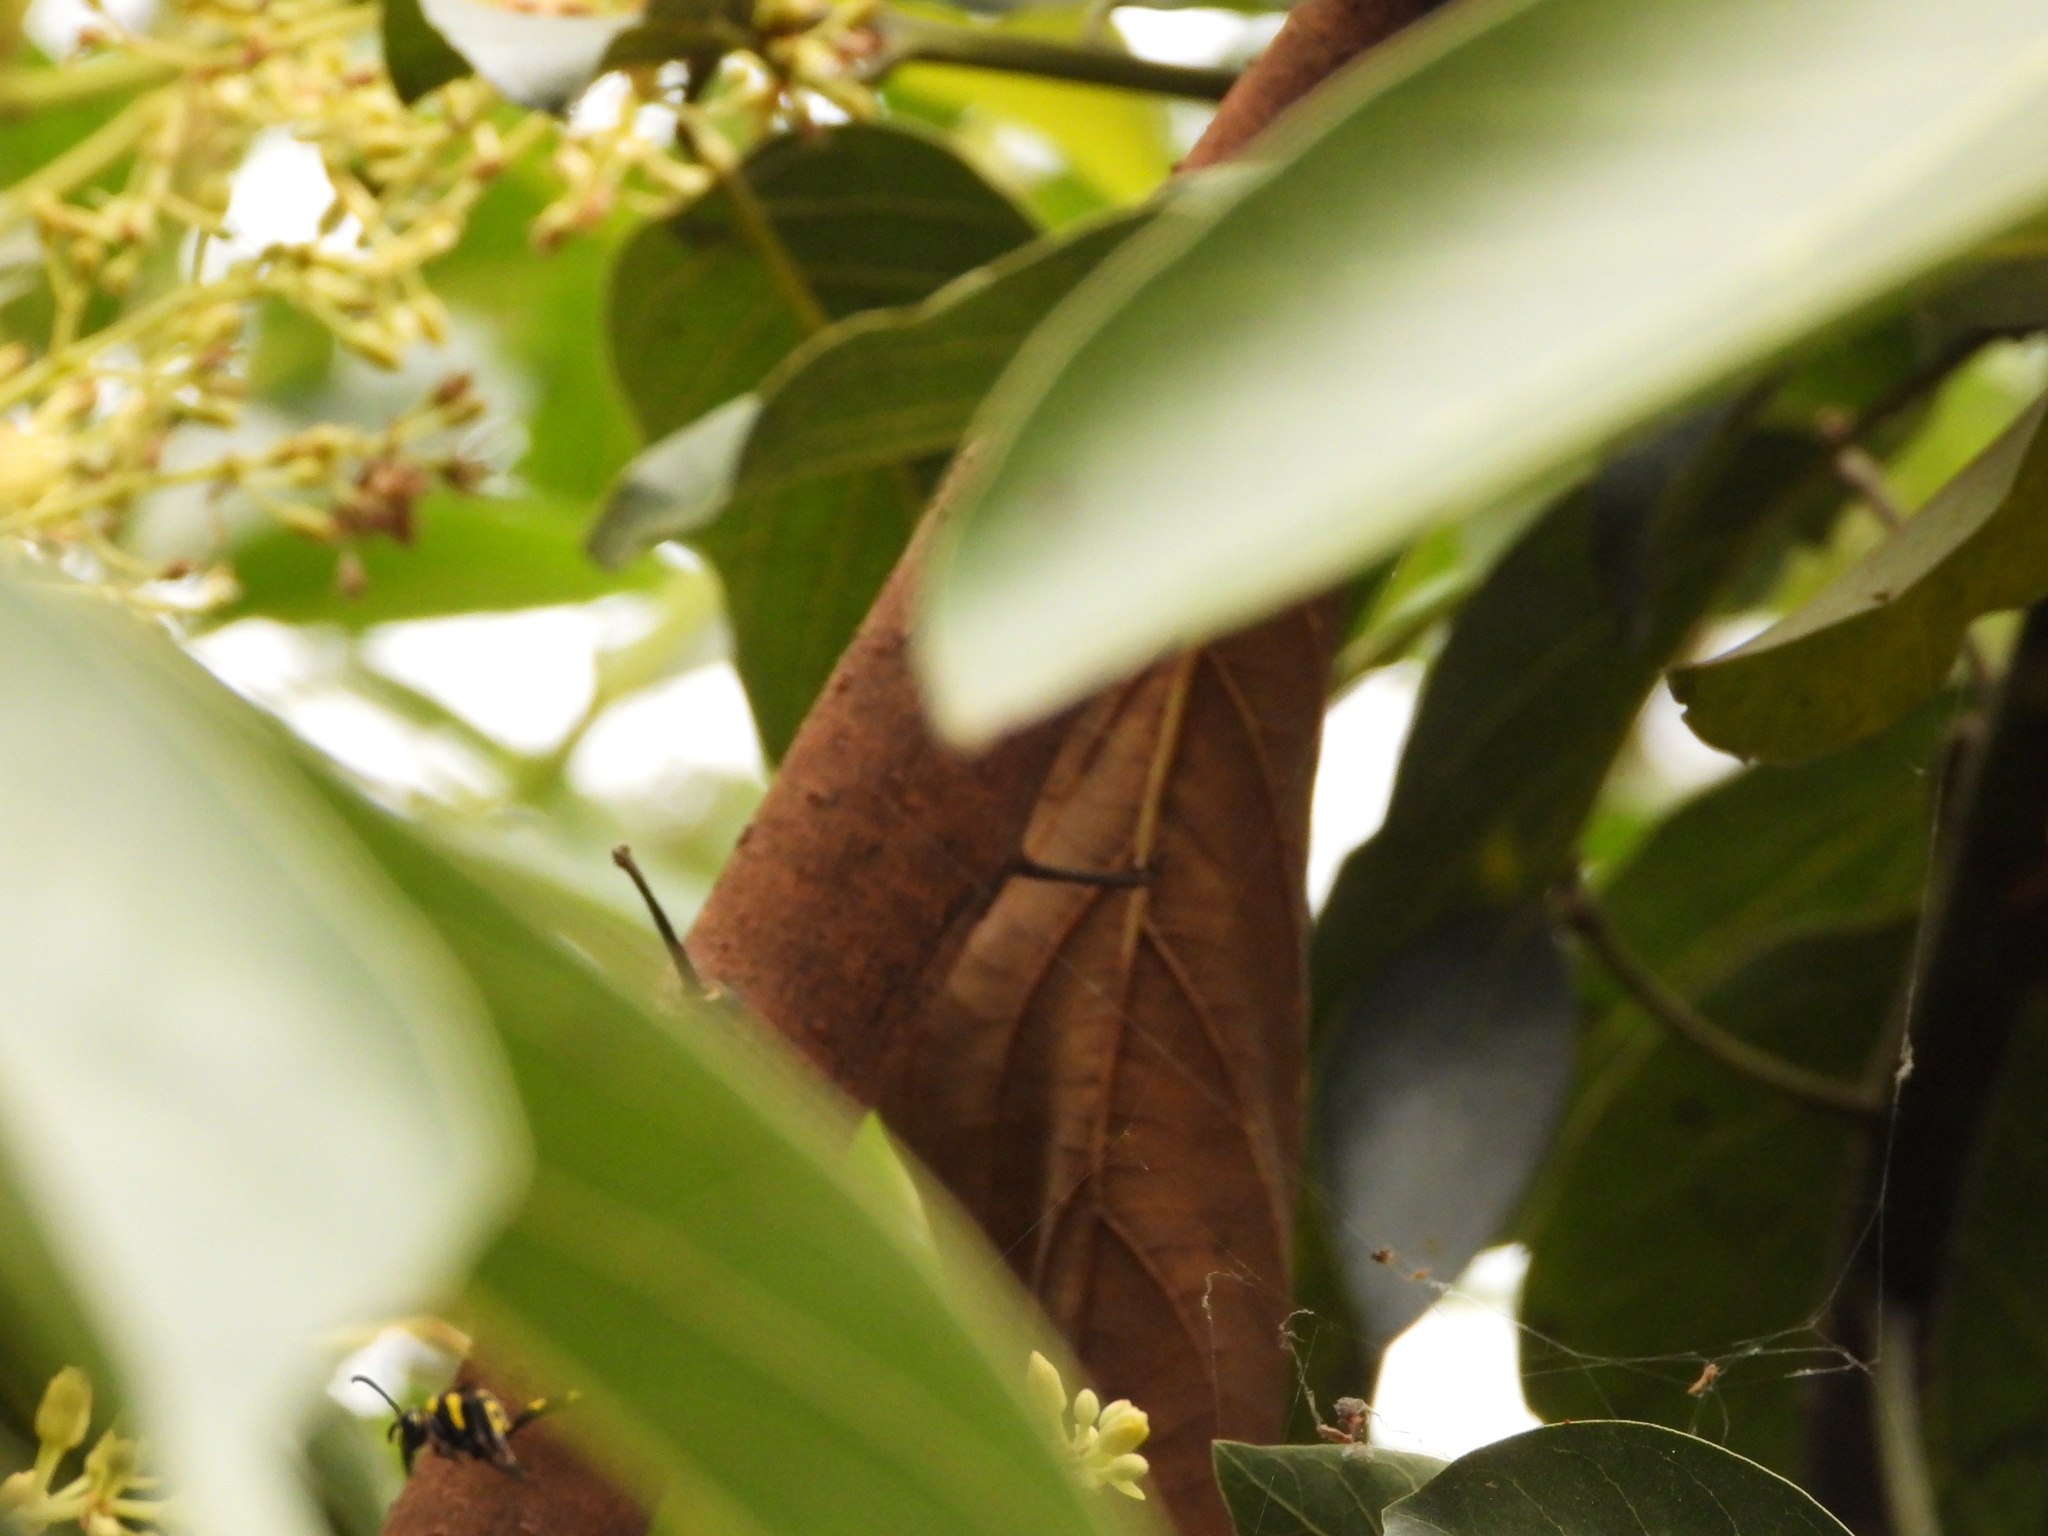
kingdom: Animalia
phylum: Arthropoda
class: Insecta
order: Hymenoptera
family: Eumenidae
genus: Phimenes
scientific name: Phimenes flavopictus
